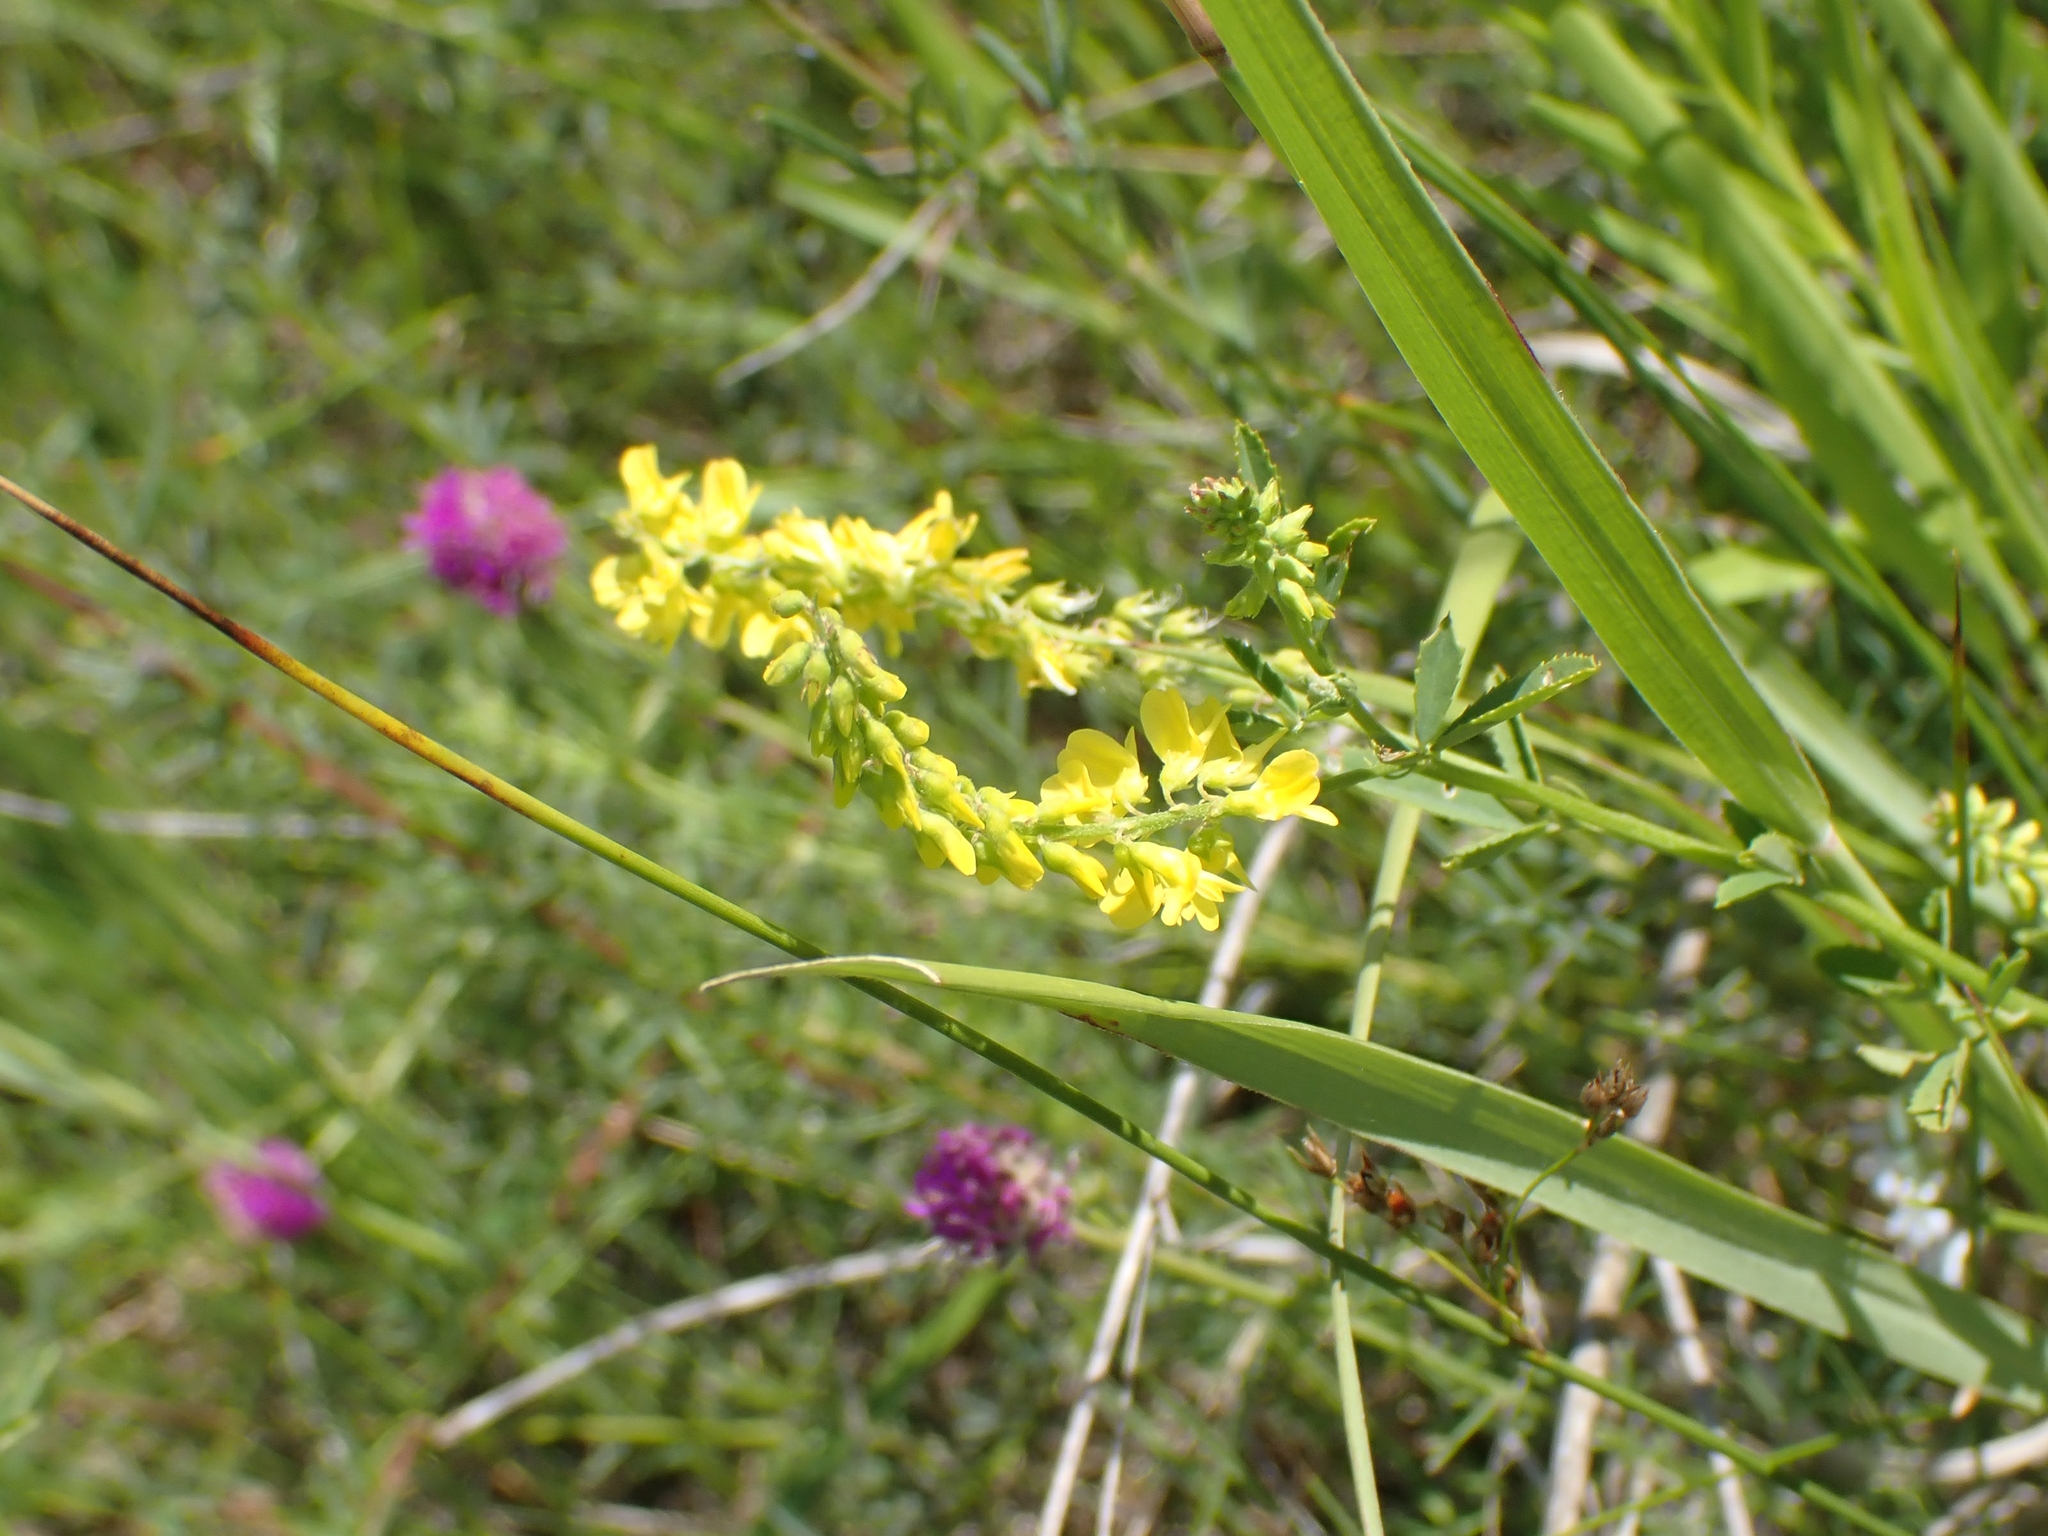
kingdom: Plantae
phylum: Tracheophyta
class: Magnoliopsida
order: Fabales
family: Fabaceae
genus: Melilotus
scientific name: Melilotus officinalis
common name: Sweetclover
